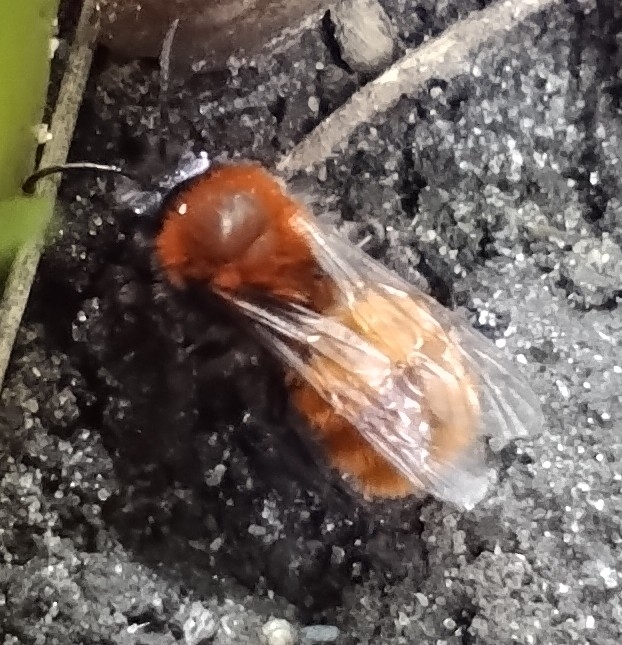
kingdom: Animalia
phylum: Arthropoda
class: Insecta
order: Hymenoptera
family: Andrenidae
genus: Andrena
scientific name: Andrena fulva
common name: Tawny mining bee
